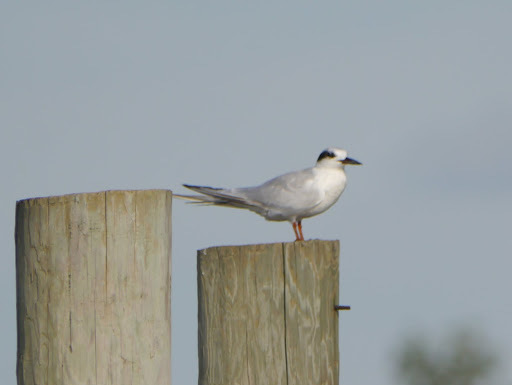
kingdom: Animalia
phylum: Chordata
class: Aves
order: Charadriiformes
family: Laridae
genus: Sterna
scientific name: Sterna forsteri
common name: Forster's tern
